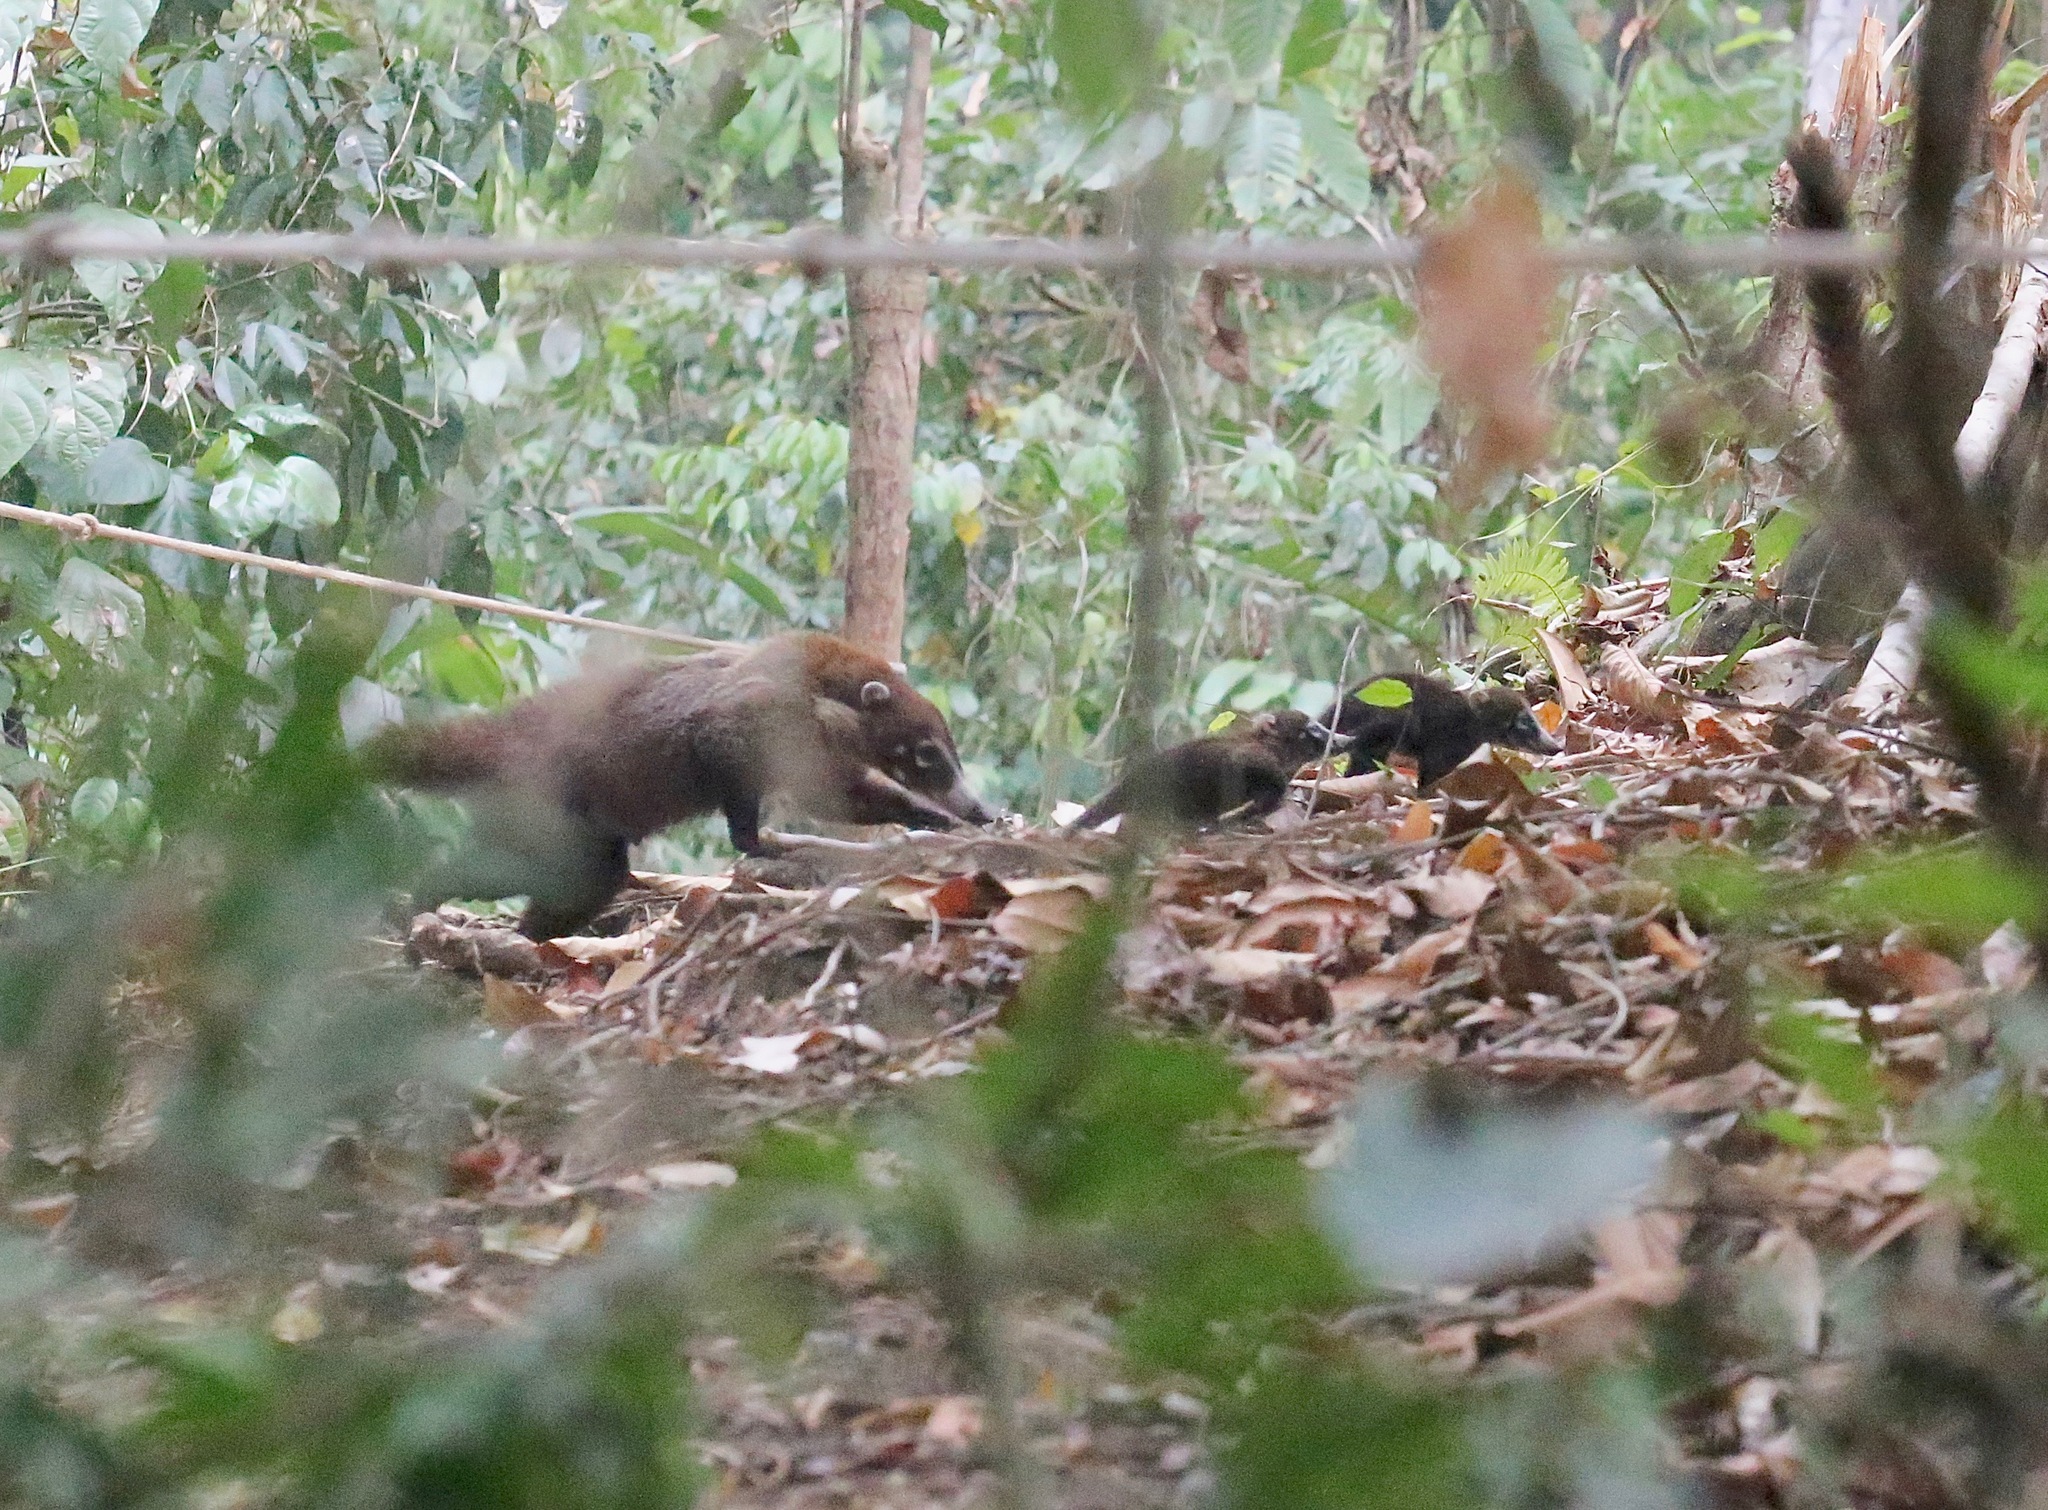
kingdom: Animalia
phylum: Chordata
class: Mammalia
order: Carnivora
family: Procyonidae
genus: Nasua
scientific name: Nasua narica
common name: White-nosed coati
